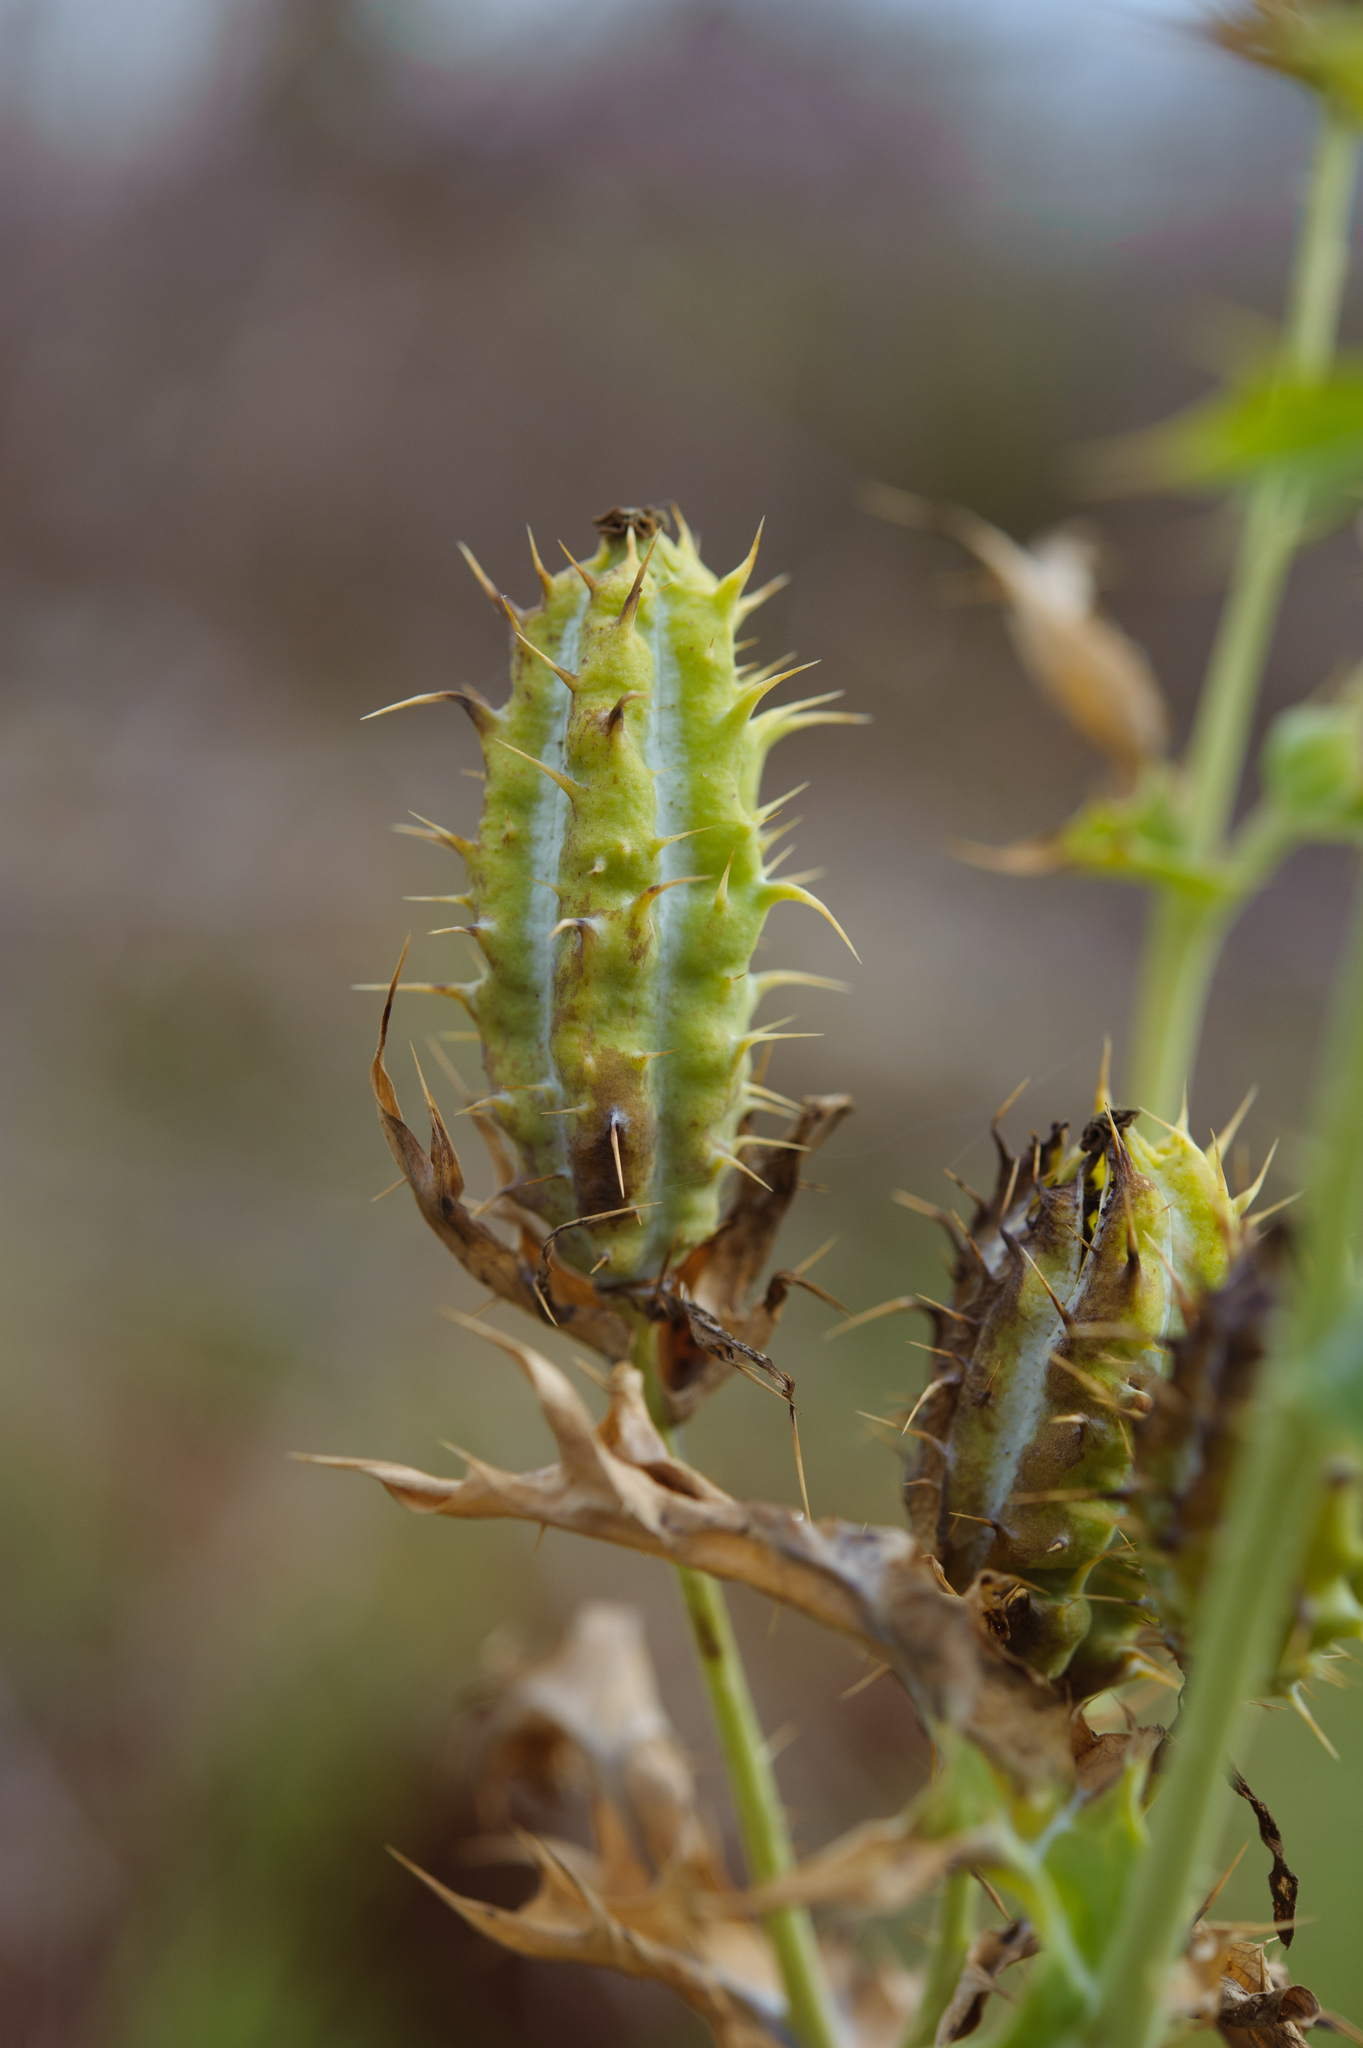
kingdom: Plantae
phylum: Tracheophyta
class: Magnoliopsida
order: Ranunculales
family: Papaveraceae
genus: Argemone
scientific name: Argemone mexicana
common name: Mexican poppy
